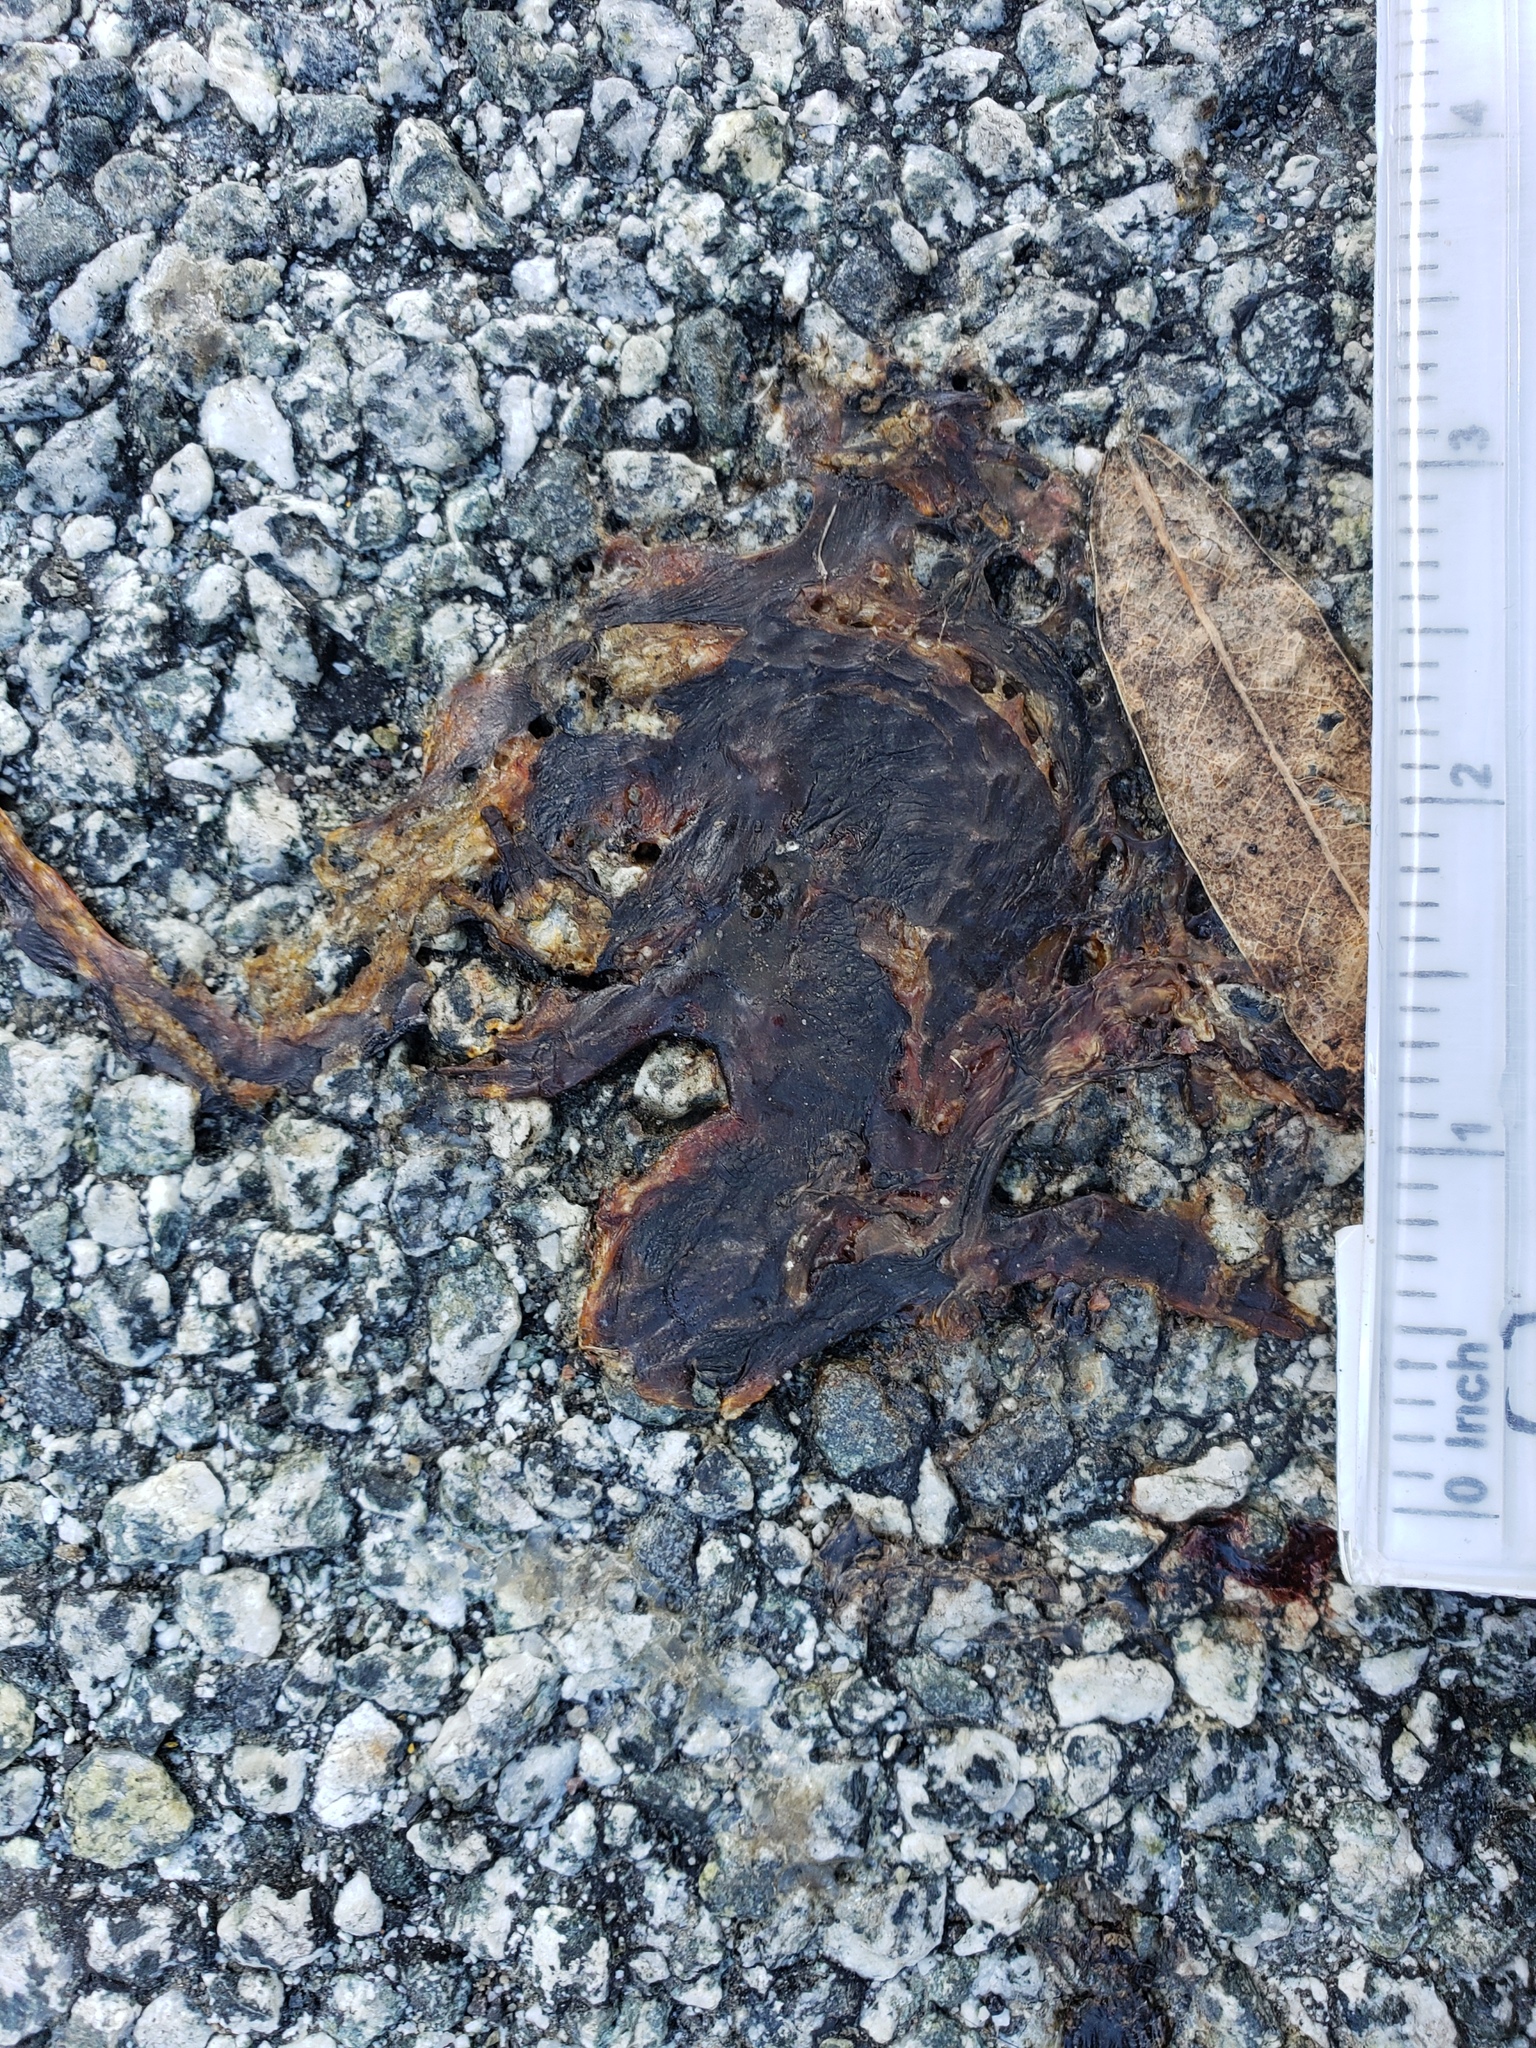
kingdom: Animalia
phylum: Chordata
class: Amphibia
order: Caudata
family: Salamandridae
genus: Taricha
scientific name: Taricha
